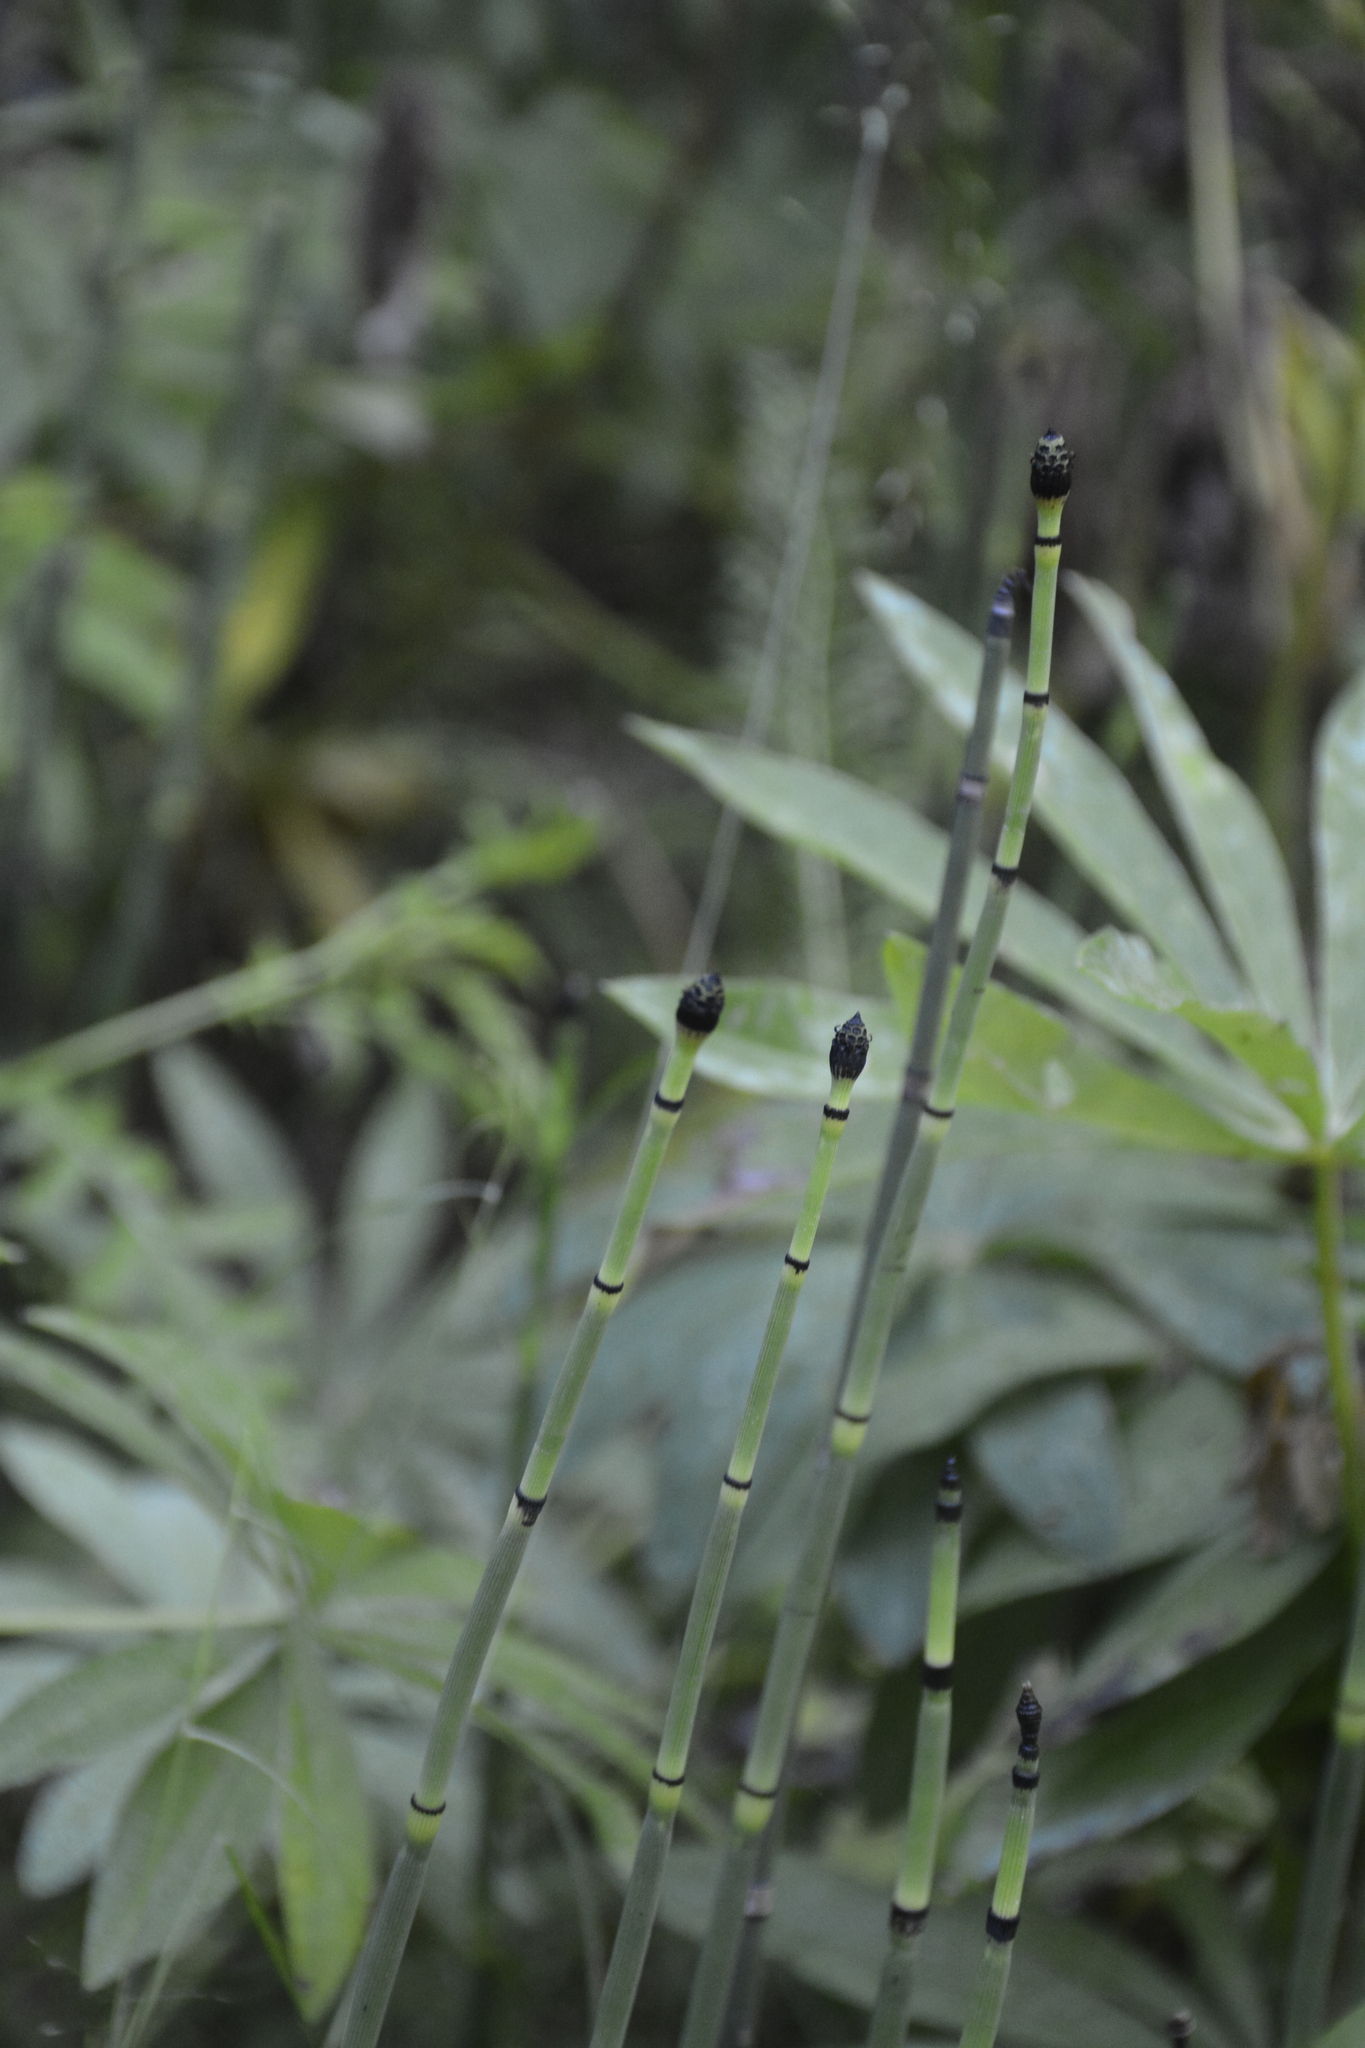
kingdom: Plantae
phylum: Tracheophyta
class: Polypodiopsida
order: Equisetales
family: Equisetaceae
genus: Equisetum
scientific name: Equisetum hyemale
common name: Rough horsetail
